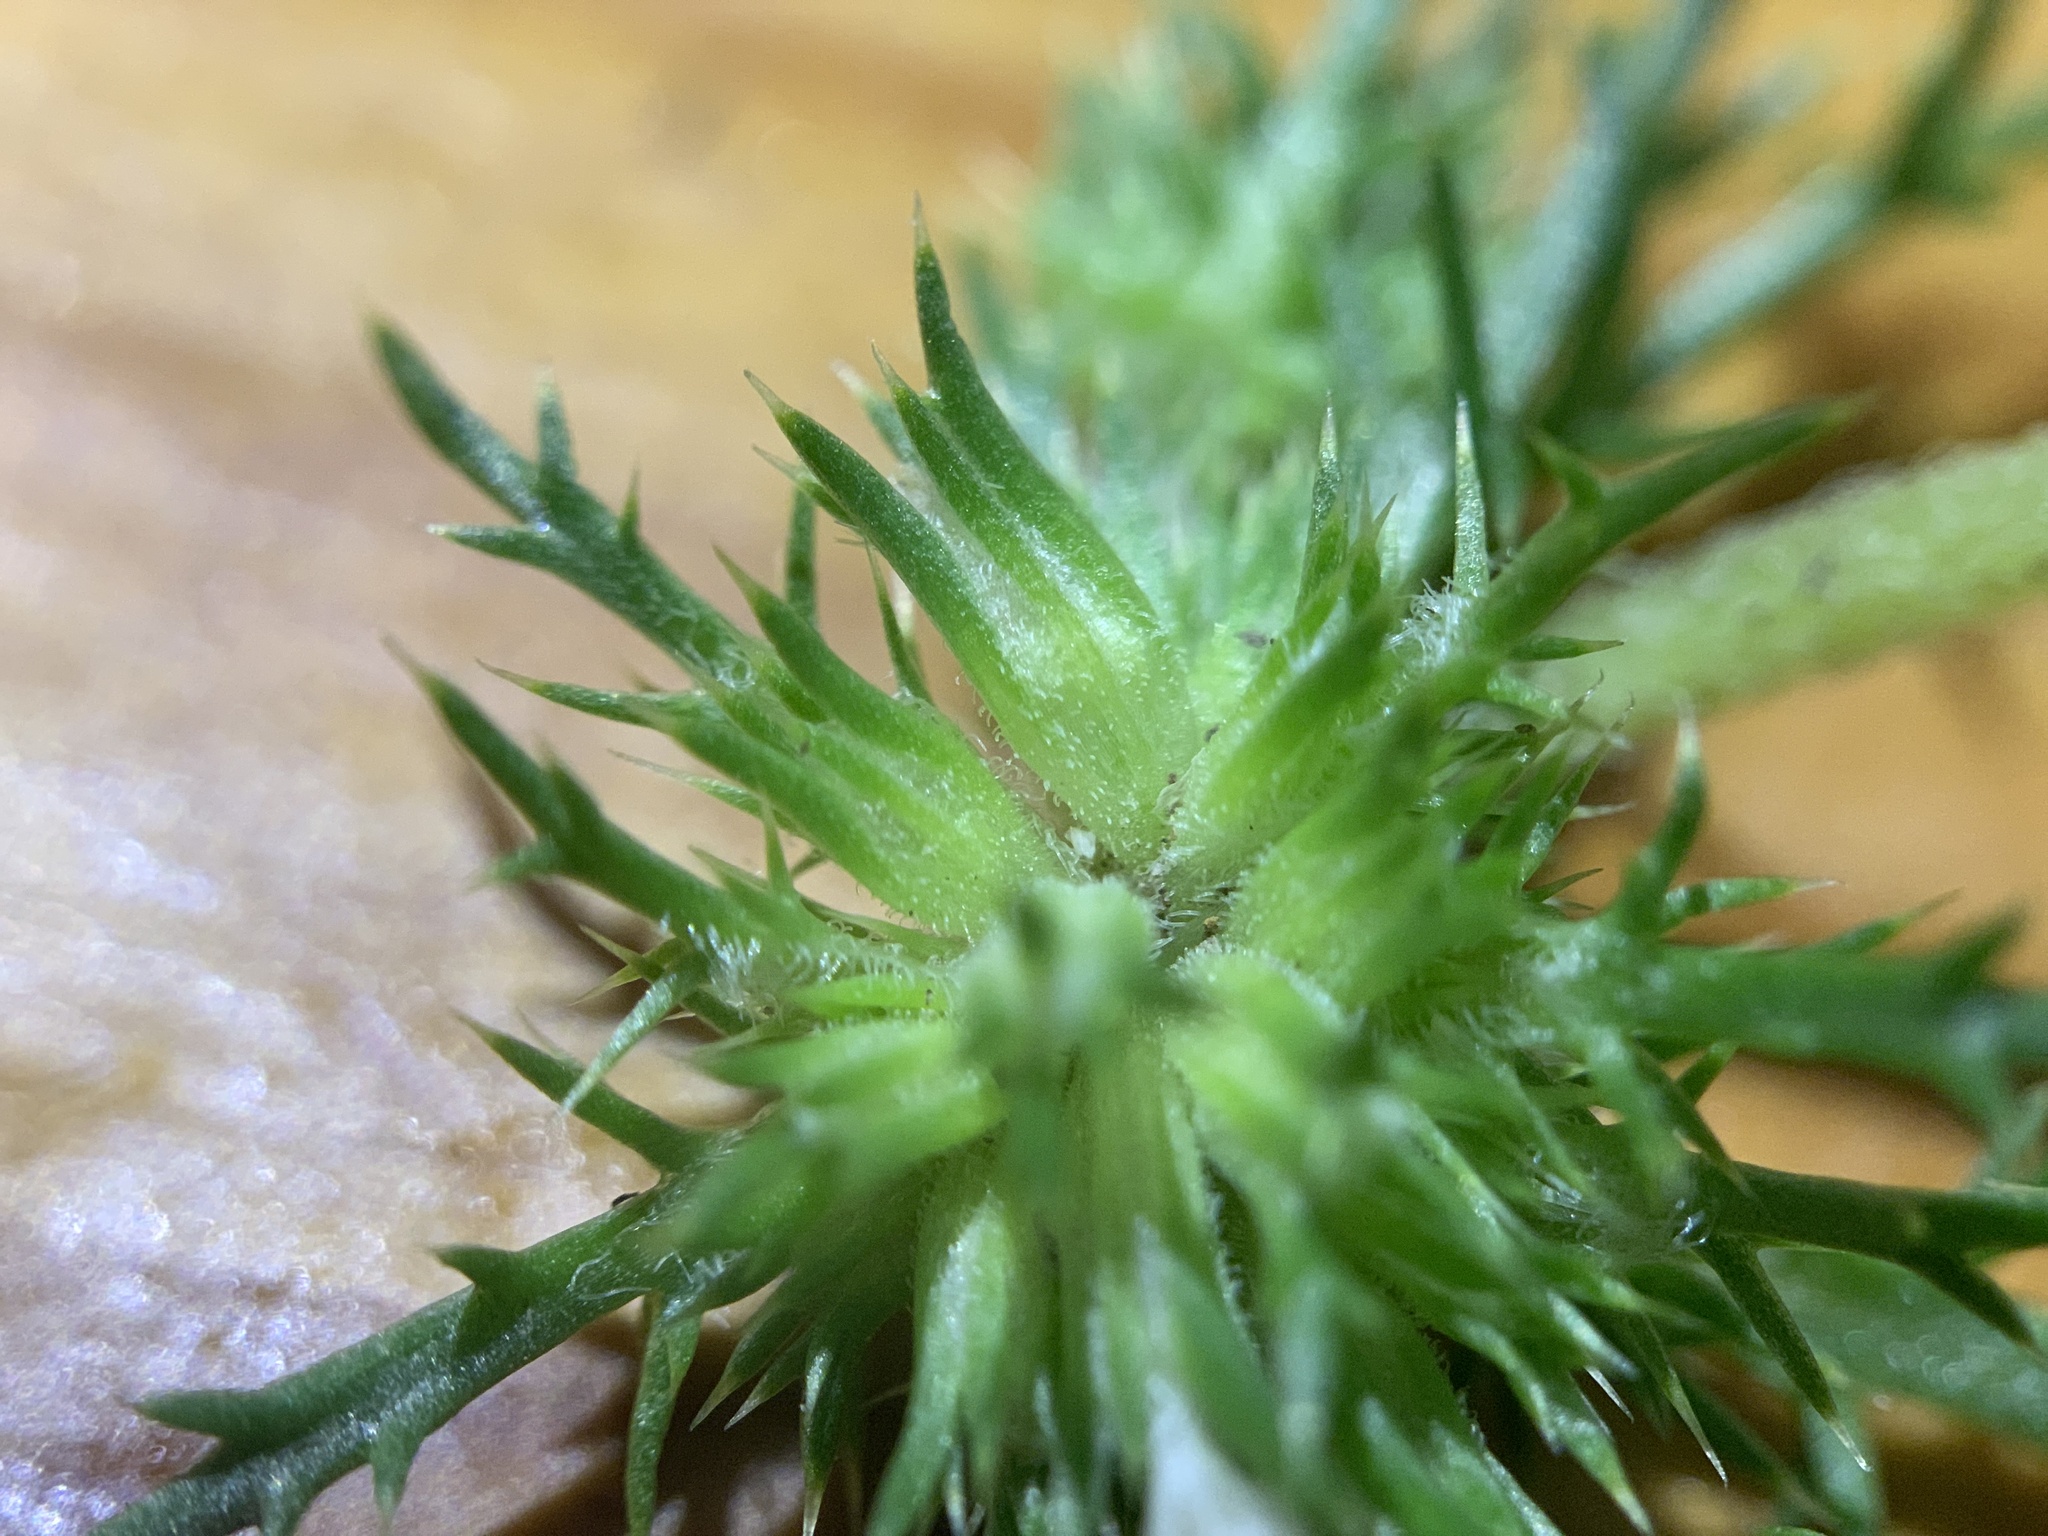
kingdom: Plantae
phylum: Tracheophyta
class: Magnoliopsida
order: Ericales
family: Polemoniaceae
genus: Navarretia
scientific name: Navarretia leucocephala
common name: White-flowered navarretia
